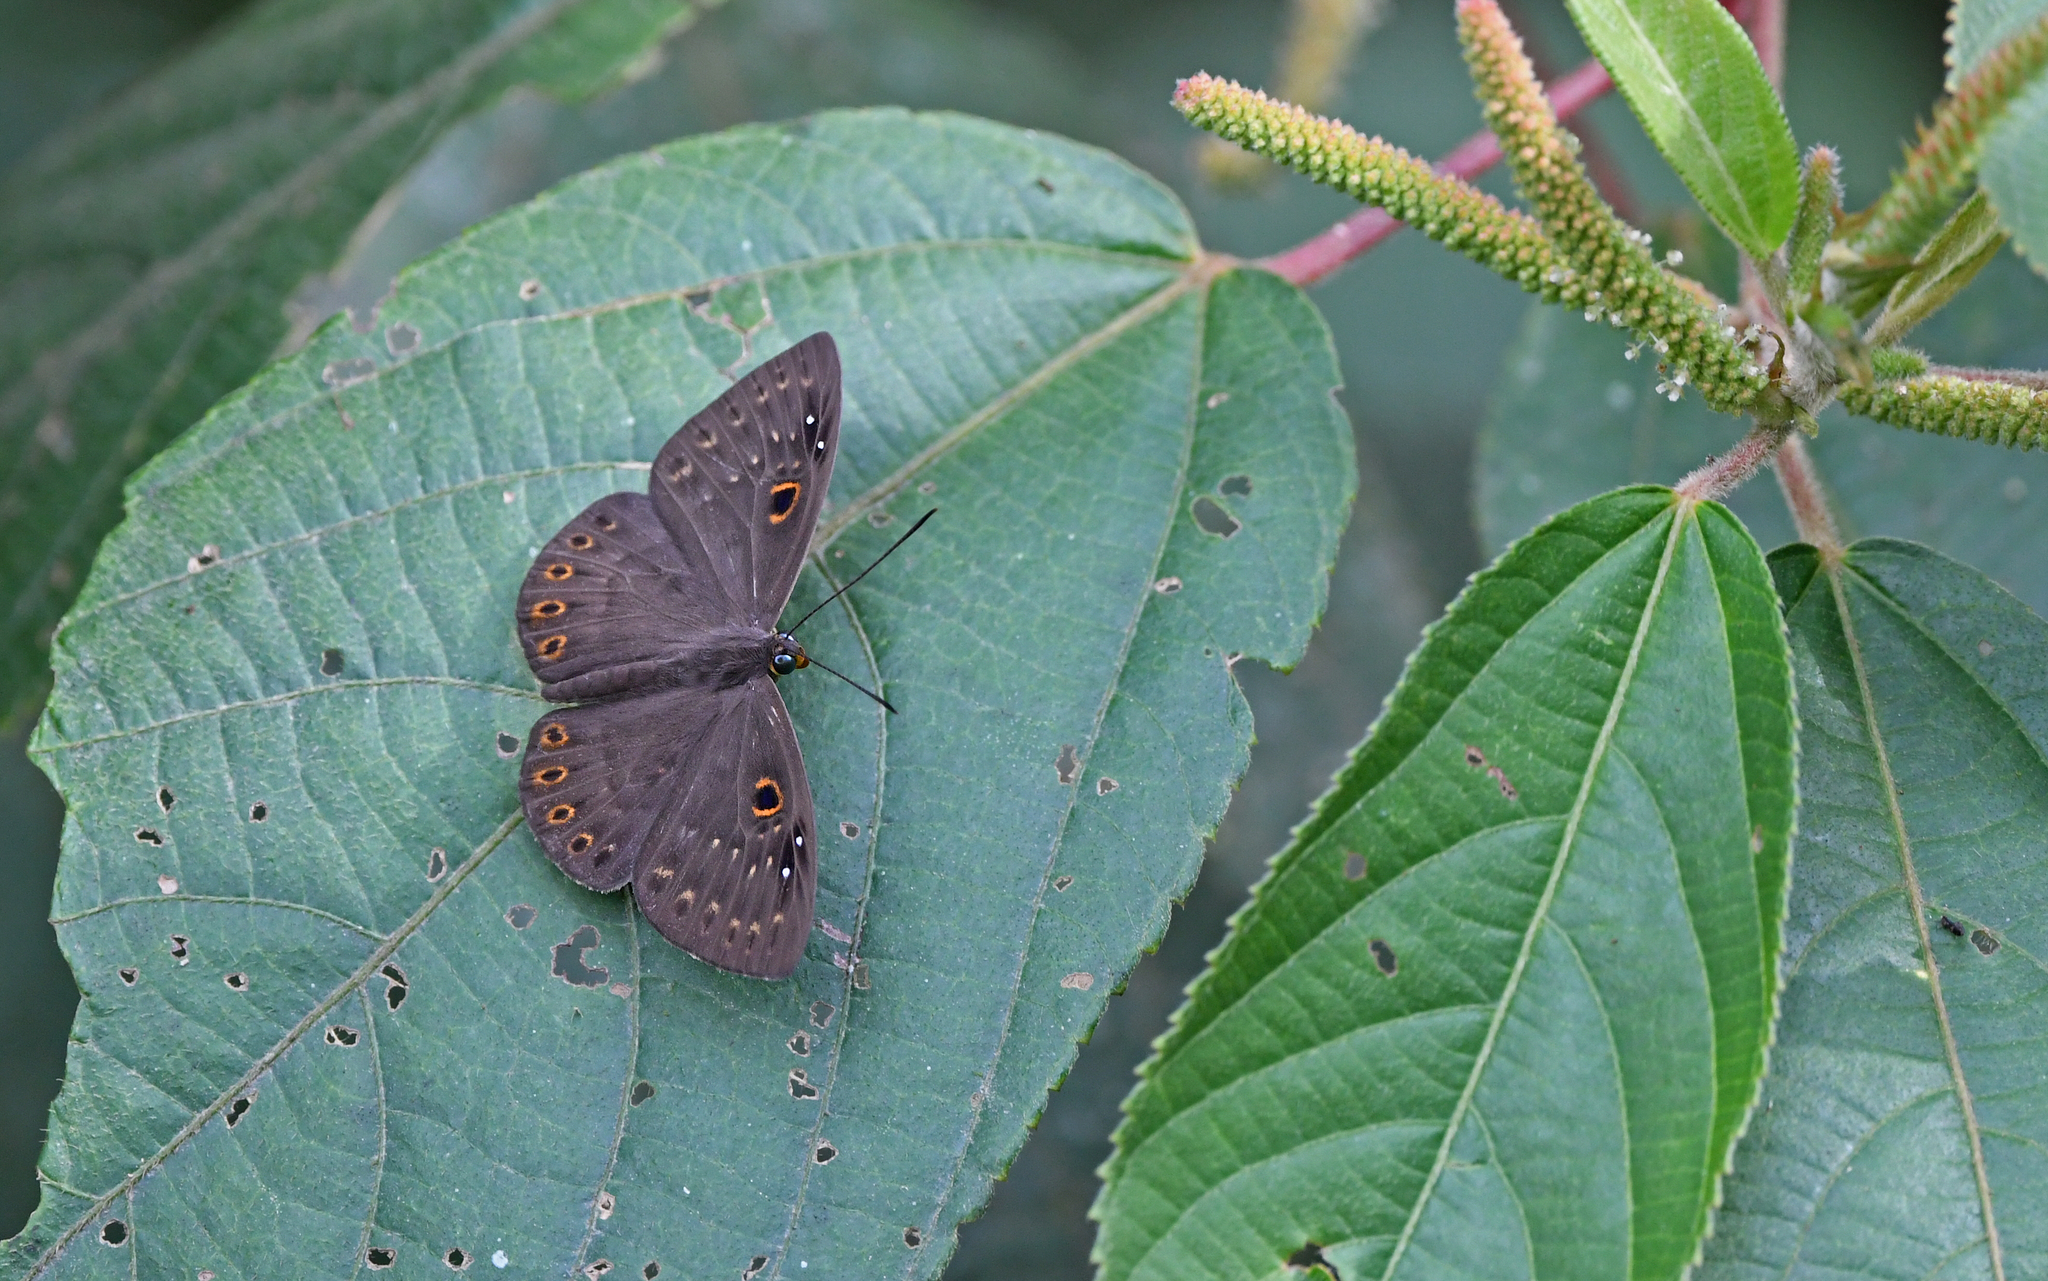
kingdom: Animalia
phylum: Cnidaria
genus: Eurybia
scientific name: Eurybia dardus
